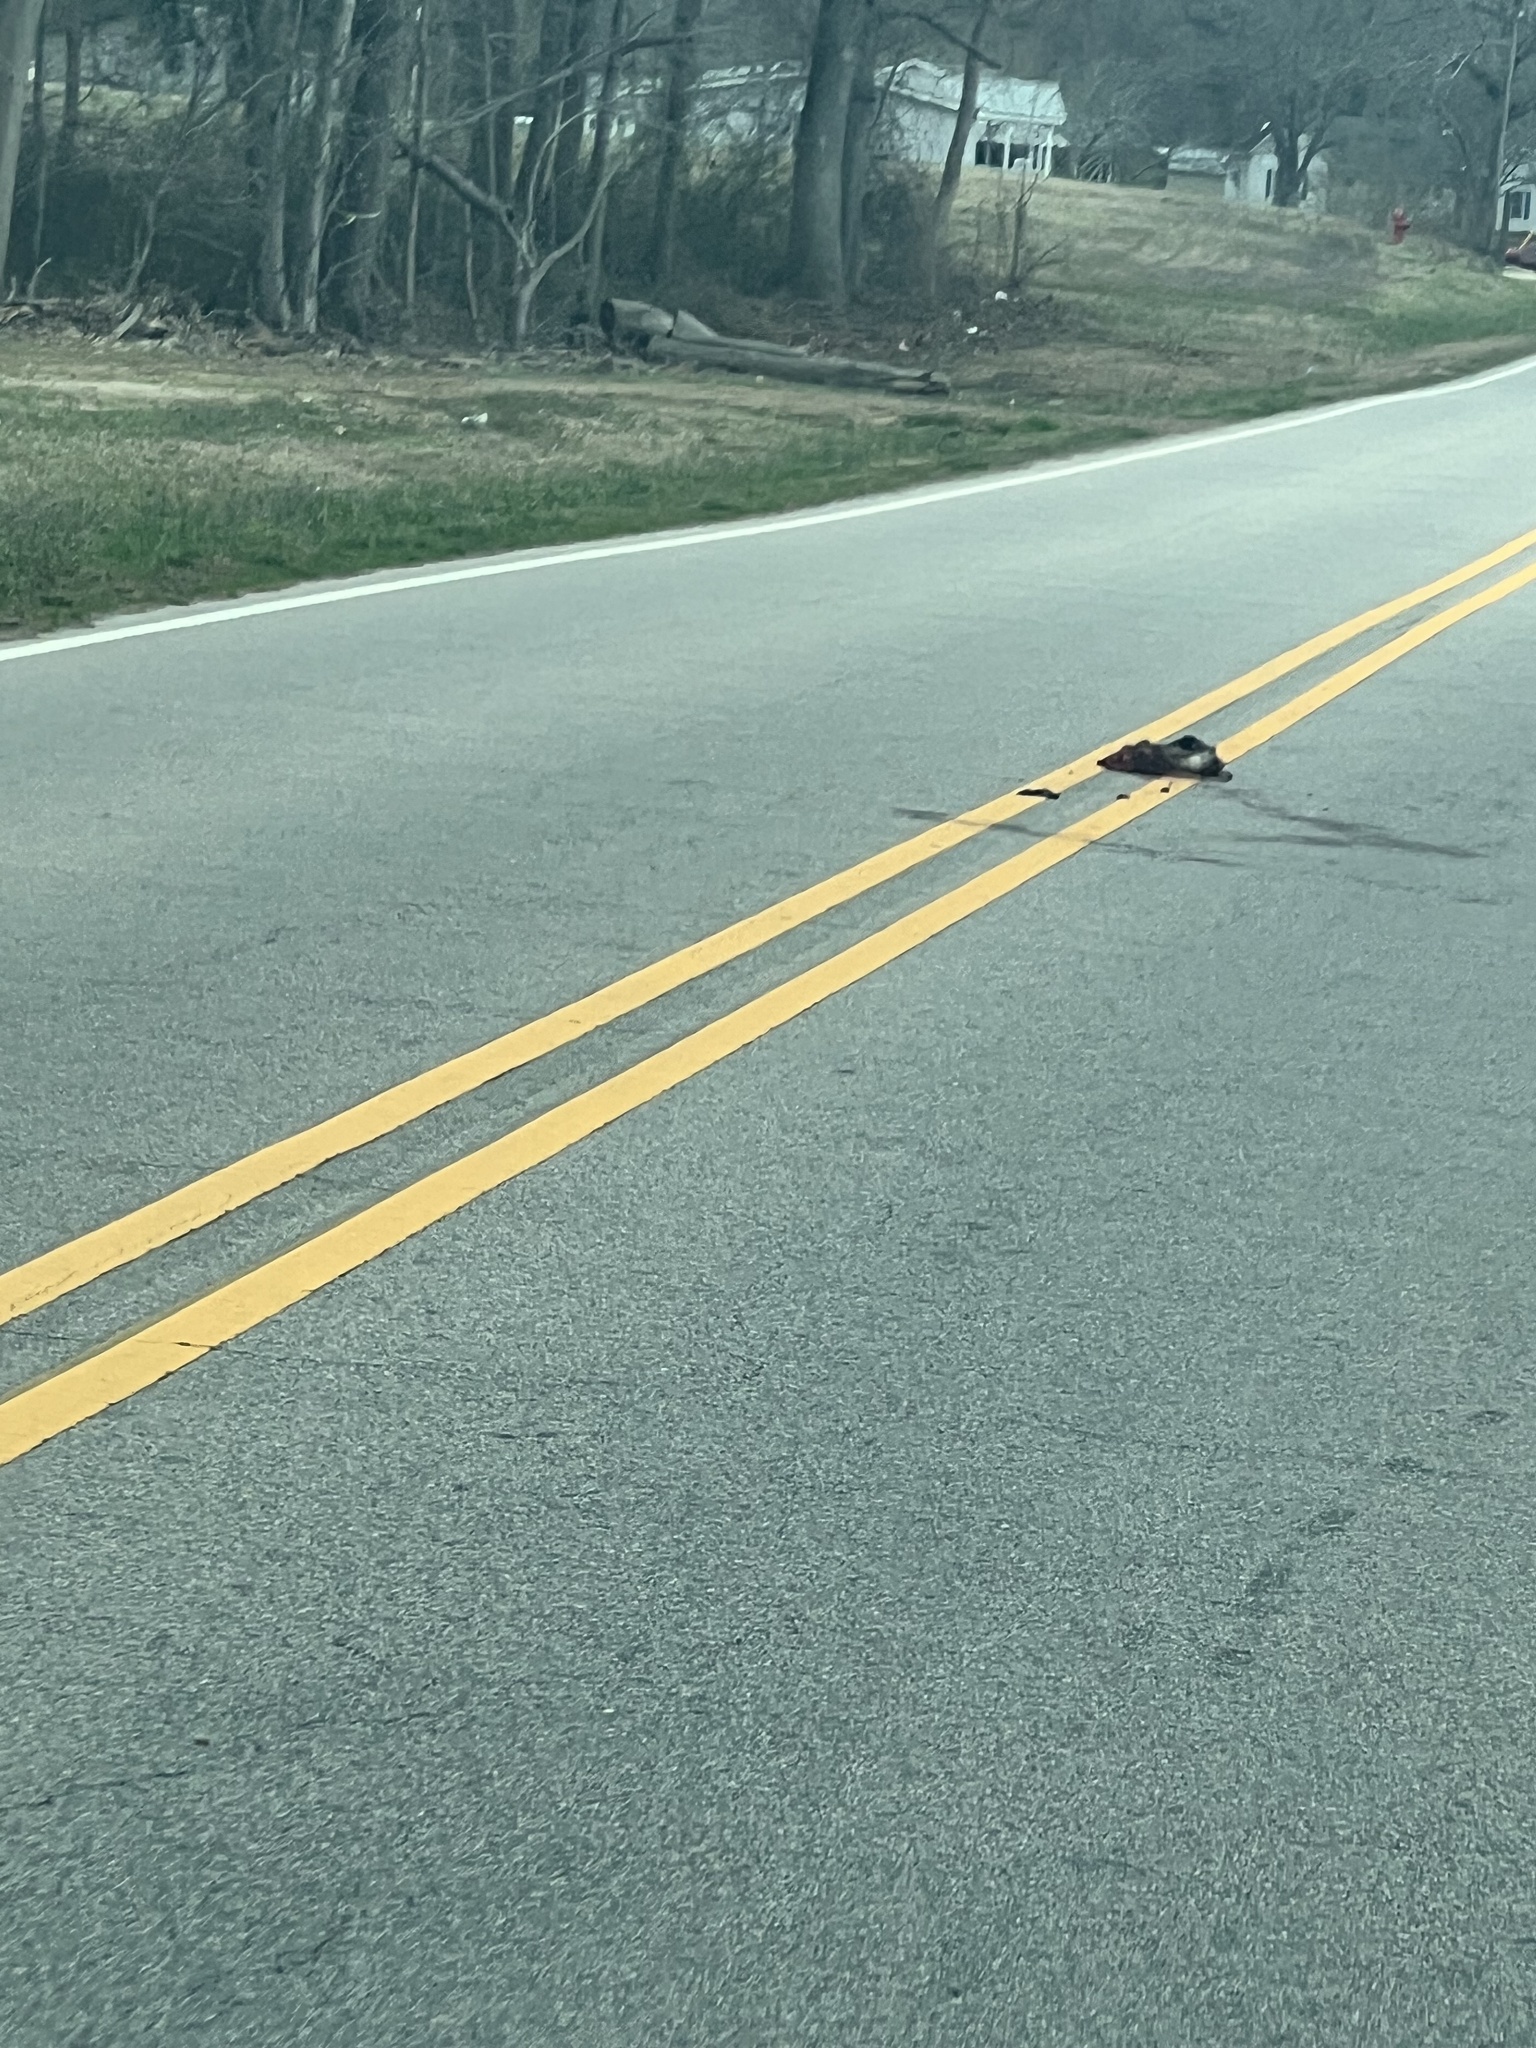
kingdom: Animalia
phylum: Chordata
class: Mammalia
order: Didelphimorphia
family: Didelphidae
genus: Didelphis
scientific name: Didelphis virginiana
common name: Virginia opossum
